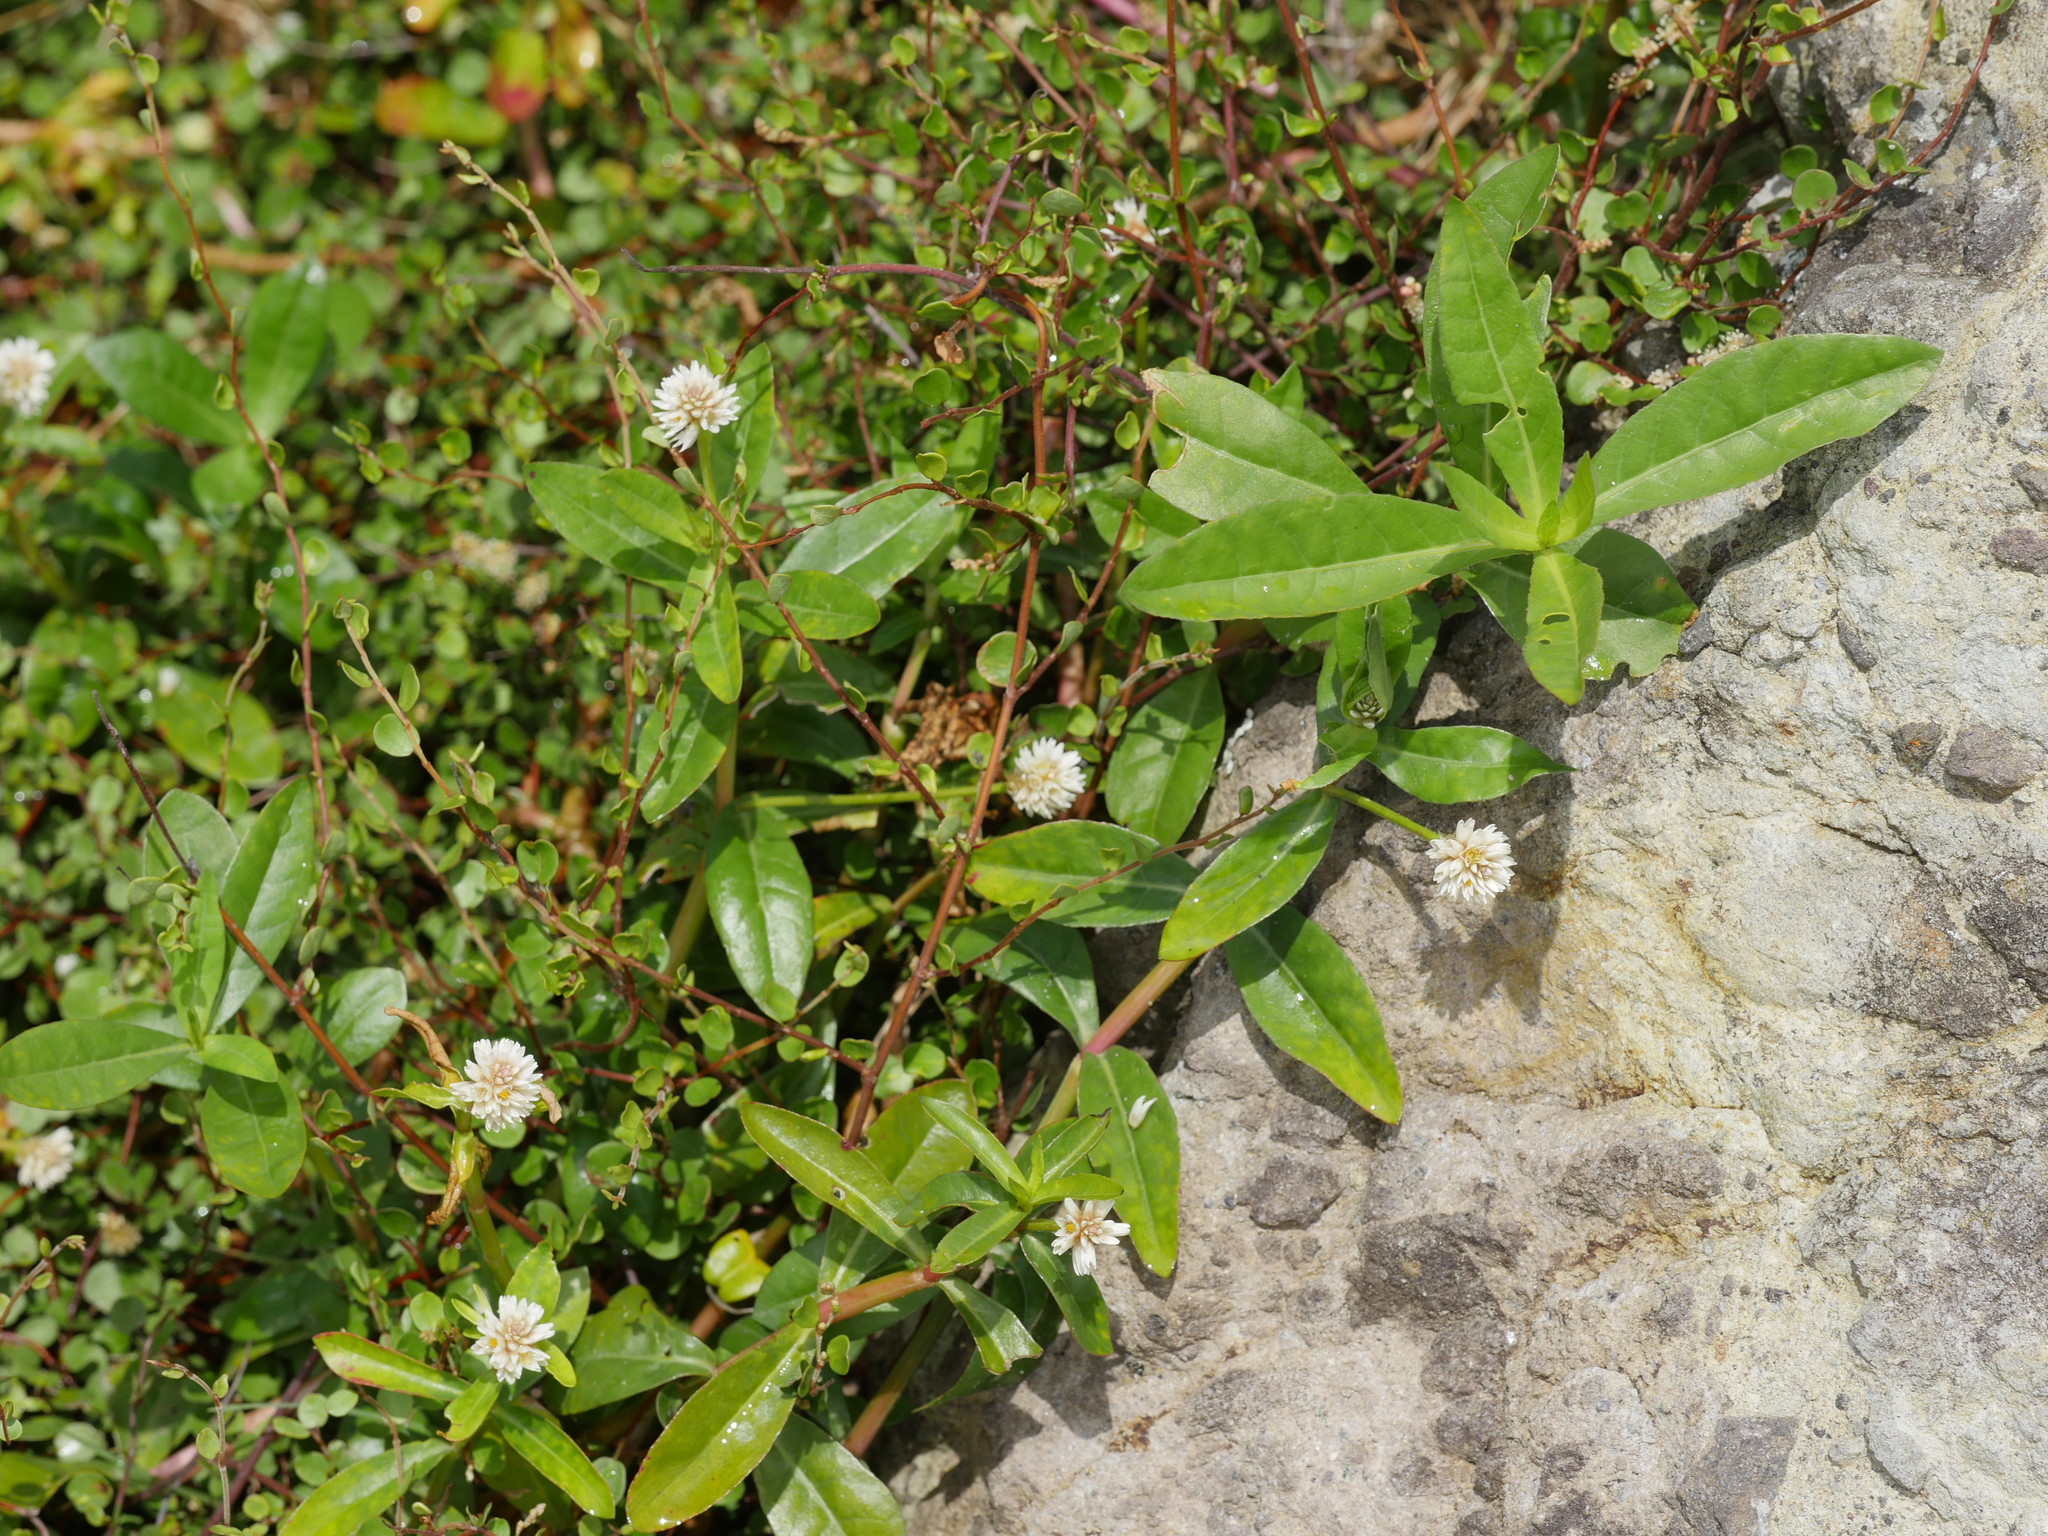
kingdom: Plantae
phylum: Tracheophyta
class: Magnoliopsida
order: Caryophyllales
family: Amaranthaceae
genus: Alternanthera
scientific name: Alternanthera philoxeroides
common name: Alligatorweed
